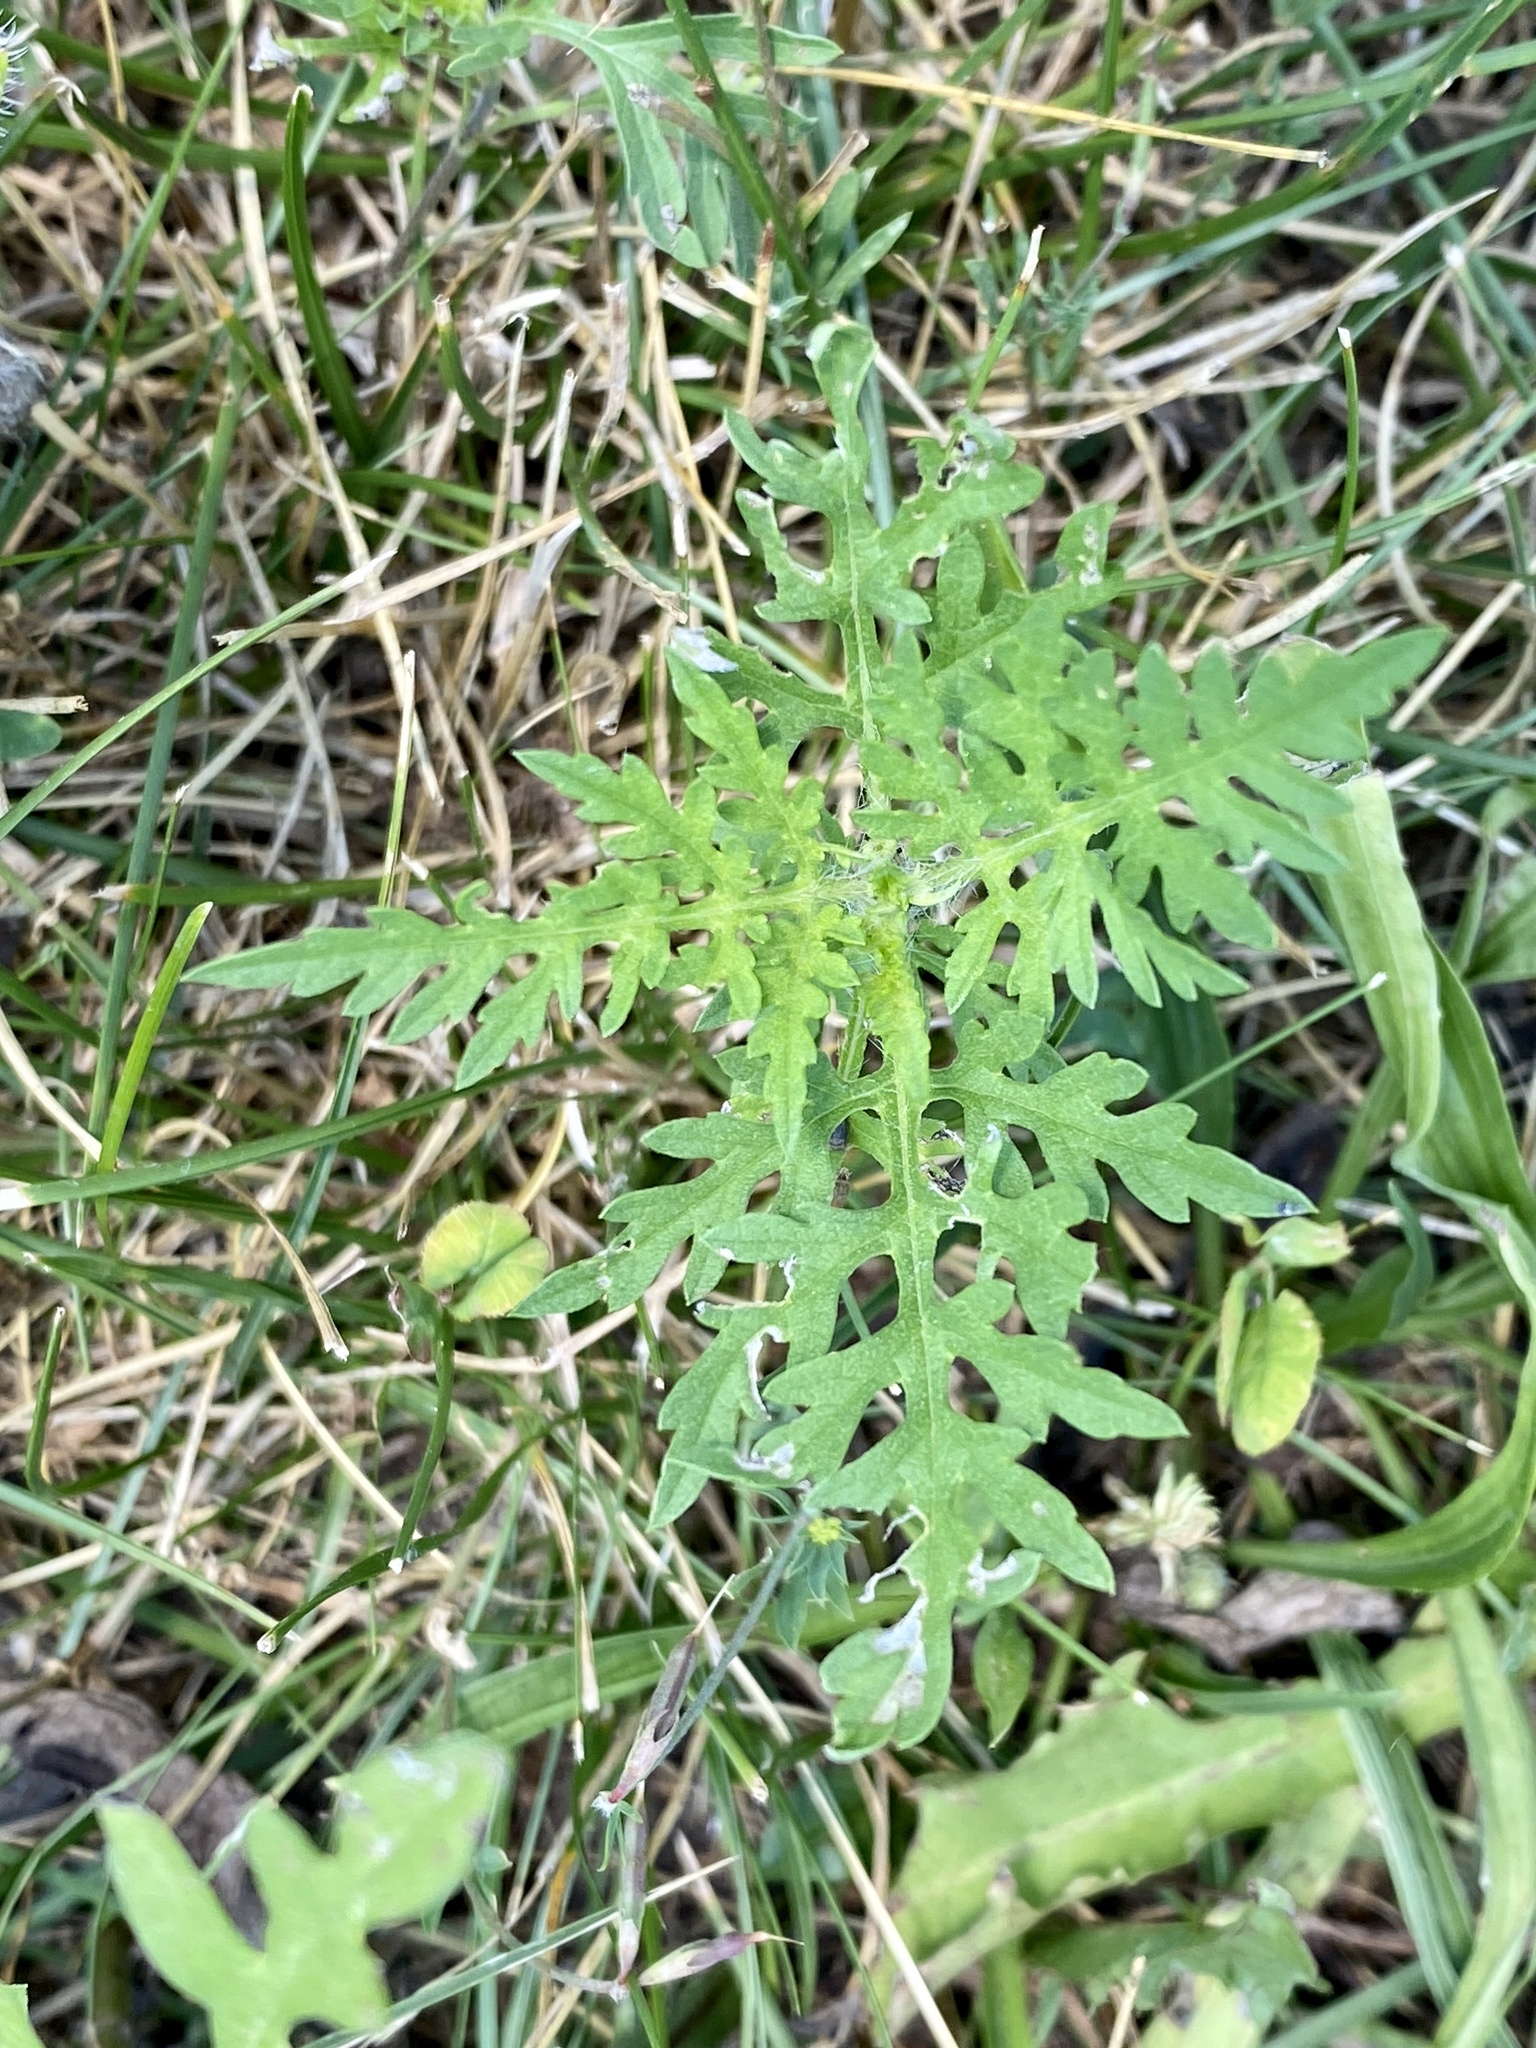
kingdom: Plantae
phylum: Tracheophyta
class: Magnoliopsida
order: Asterales
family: Asteraceae
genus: Ambrosia
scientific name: Ambrosia artemisiifolia
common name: Annual ragweed
